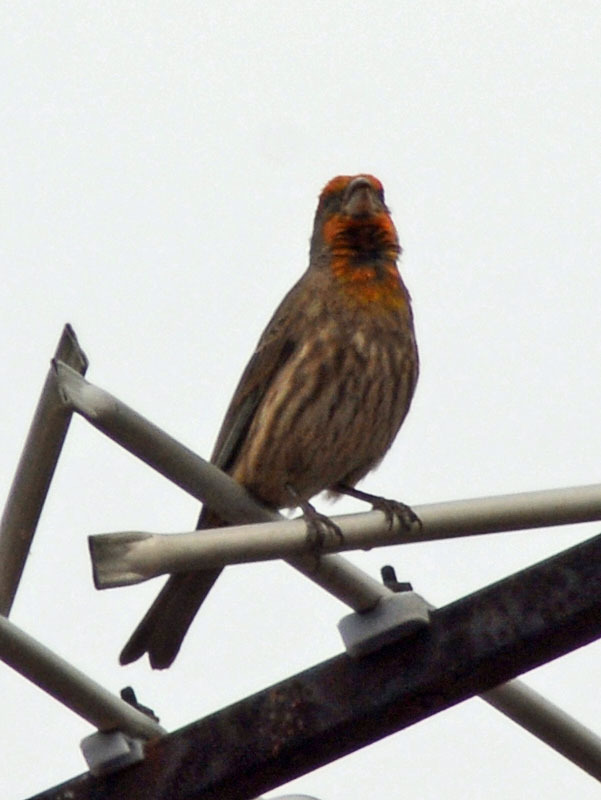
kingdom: Animalia
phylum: Chordata
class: Aves
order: Passeriformes
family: Fringillidae
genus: Haemorhous
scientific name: Haemorhous mexicanus
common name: House finch
